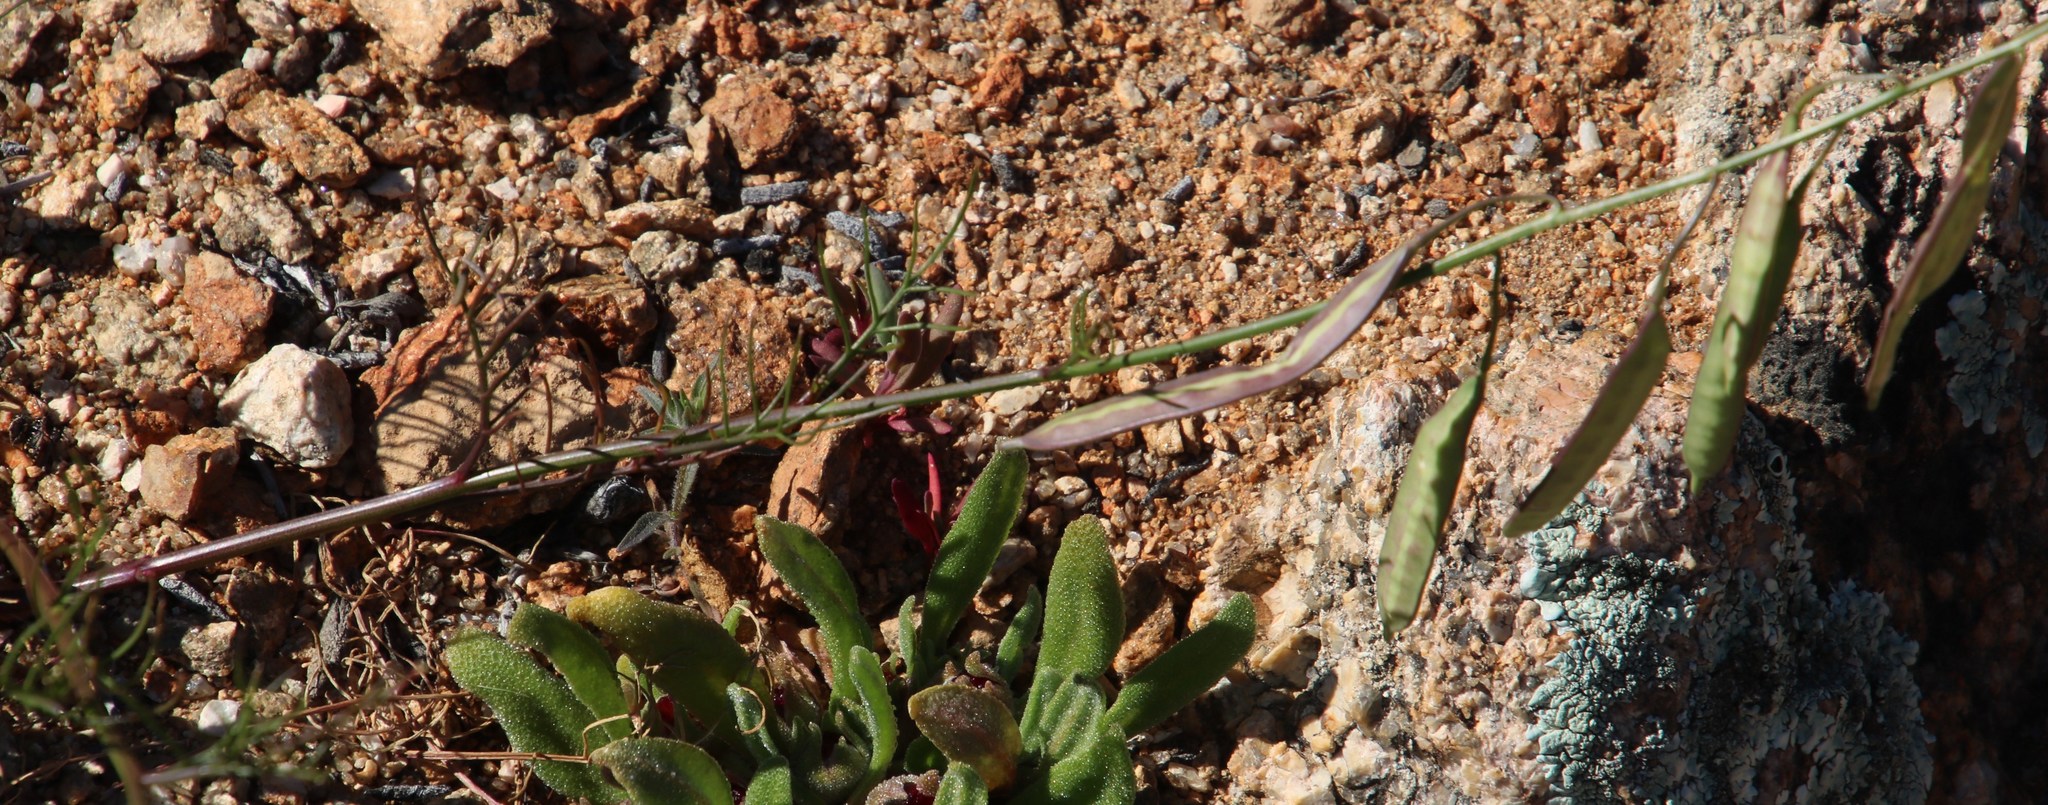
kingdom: Plantae
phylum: Tracheophyta
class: Magnoliopsida
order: Brassicales
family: Brassicaceae
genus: Heliophila
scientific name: Heliophila thunbergii
